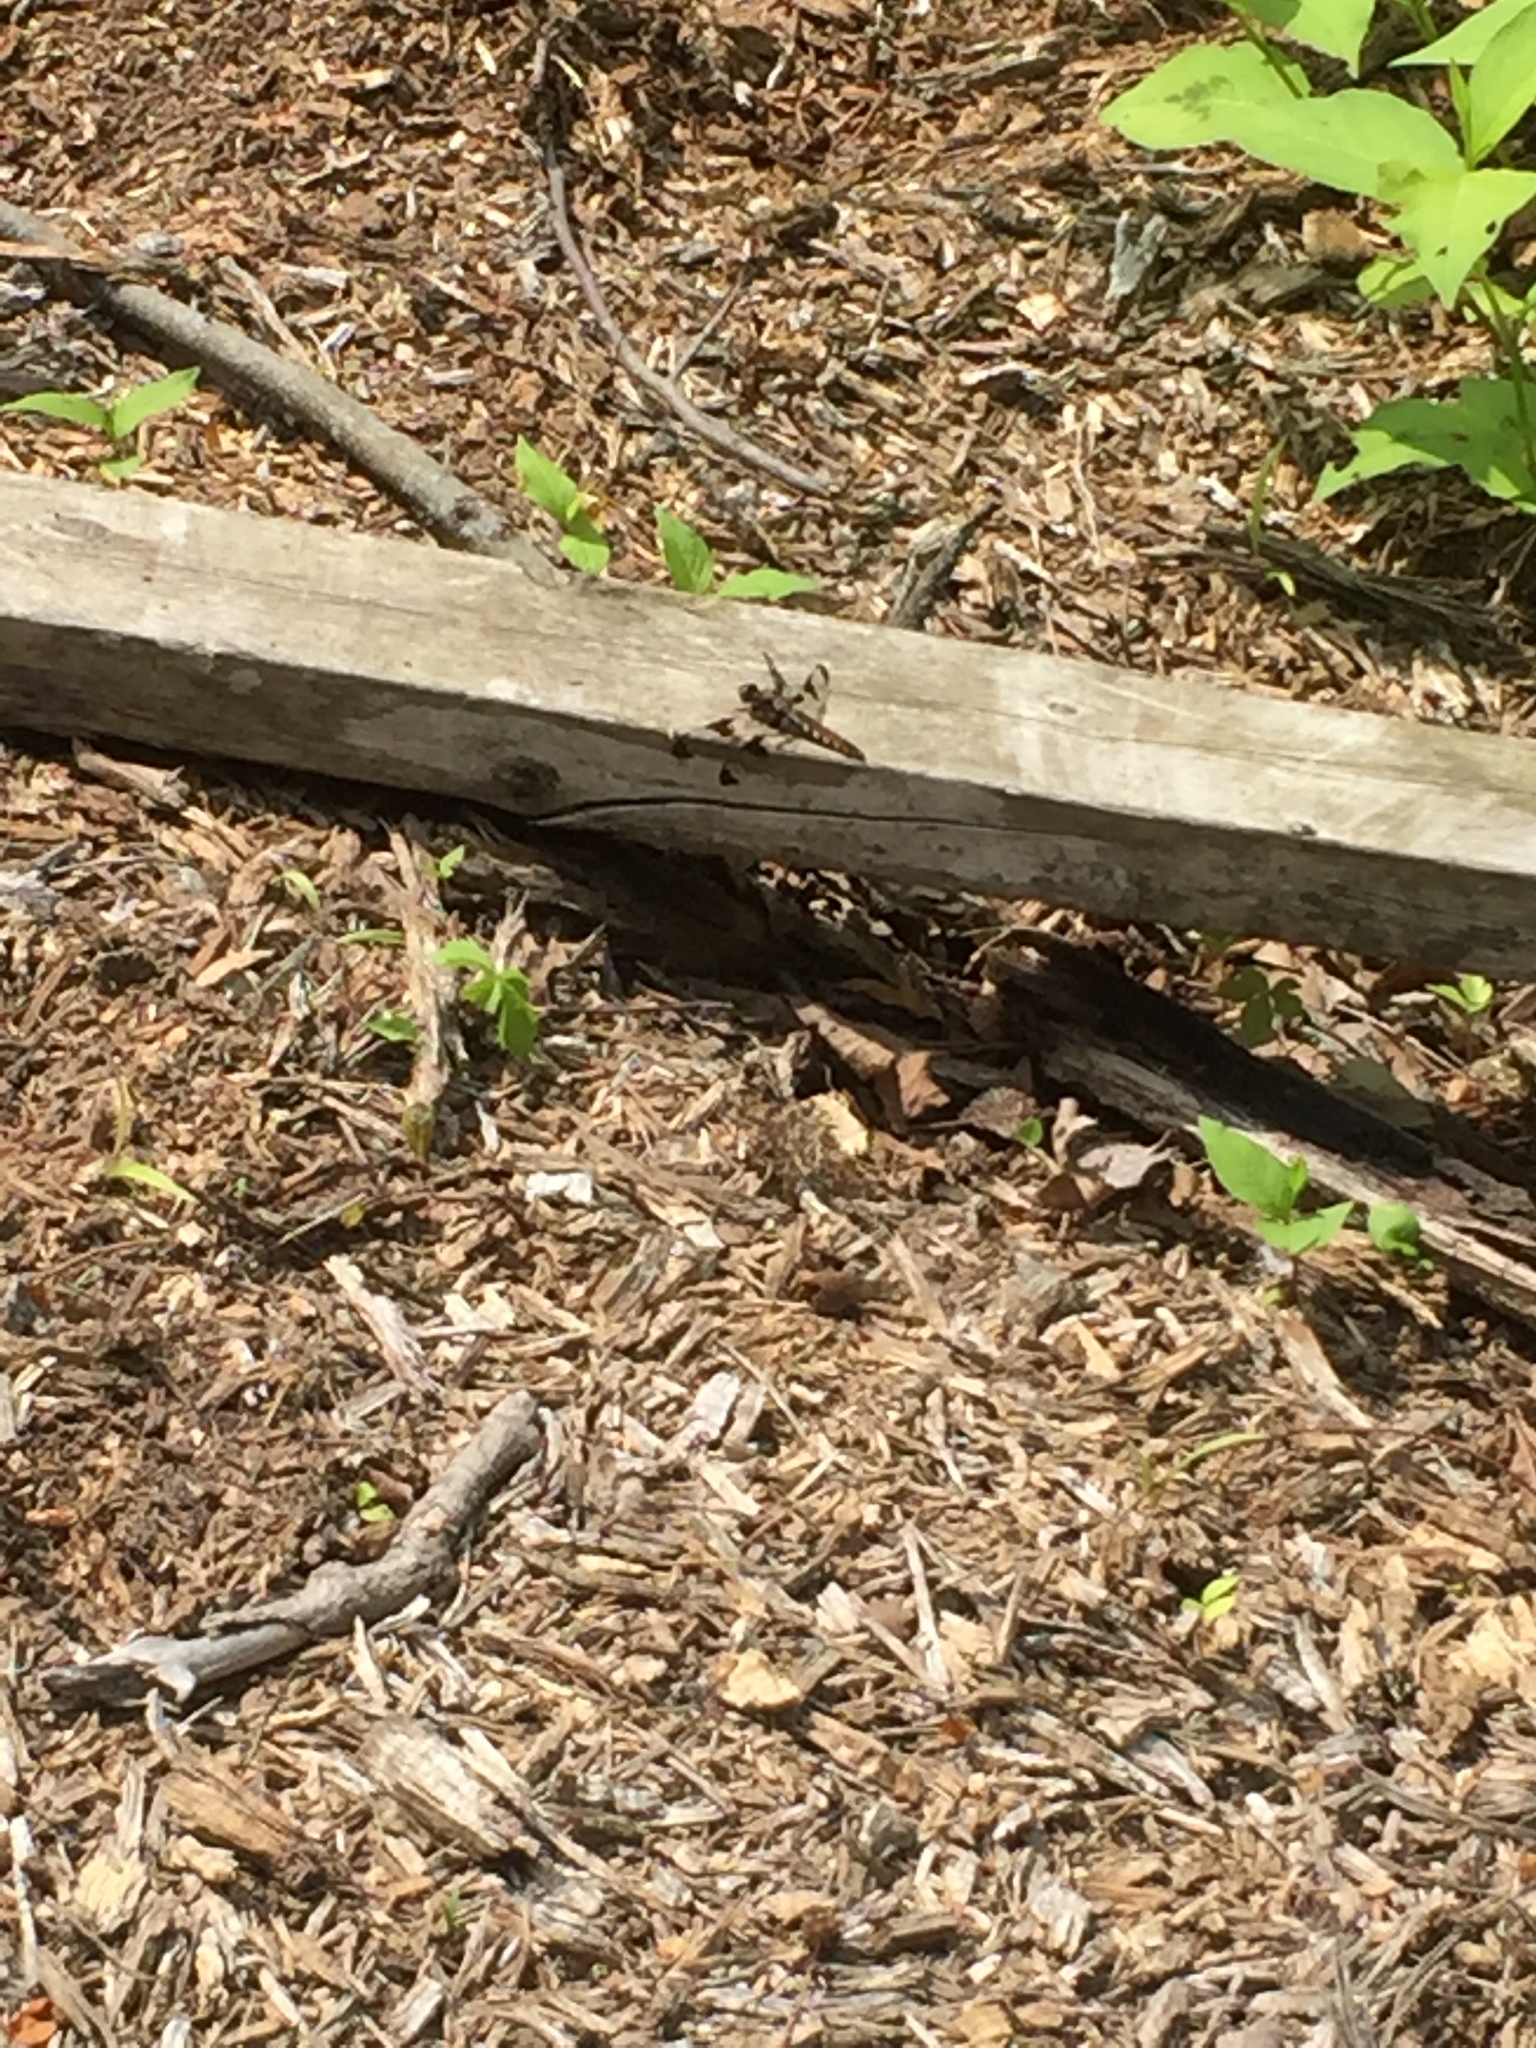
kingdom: Animalia
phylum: Arthropoda
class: Insecta
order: Odonata
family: Libellulidae
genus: Plathemis
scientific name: Plathemis lydia
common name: Common whitetail
